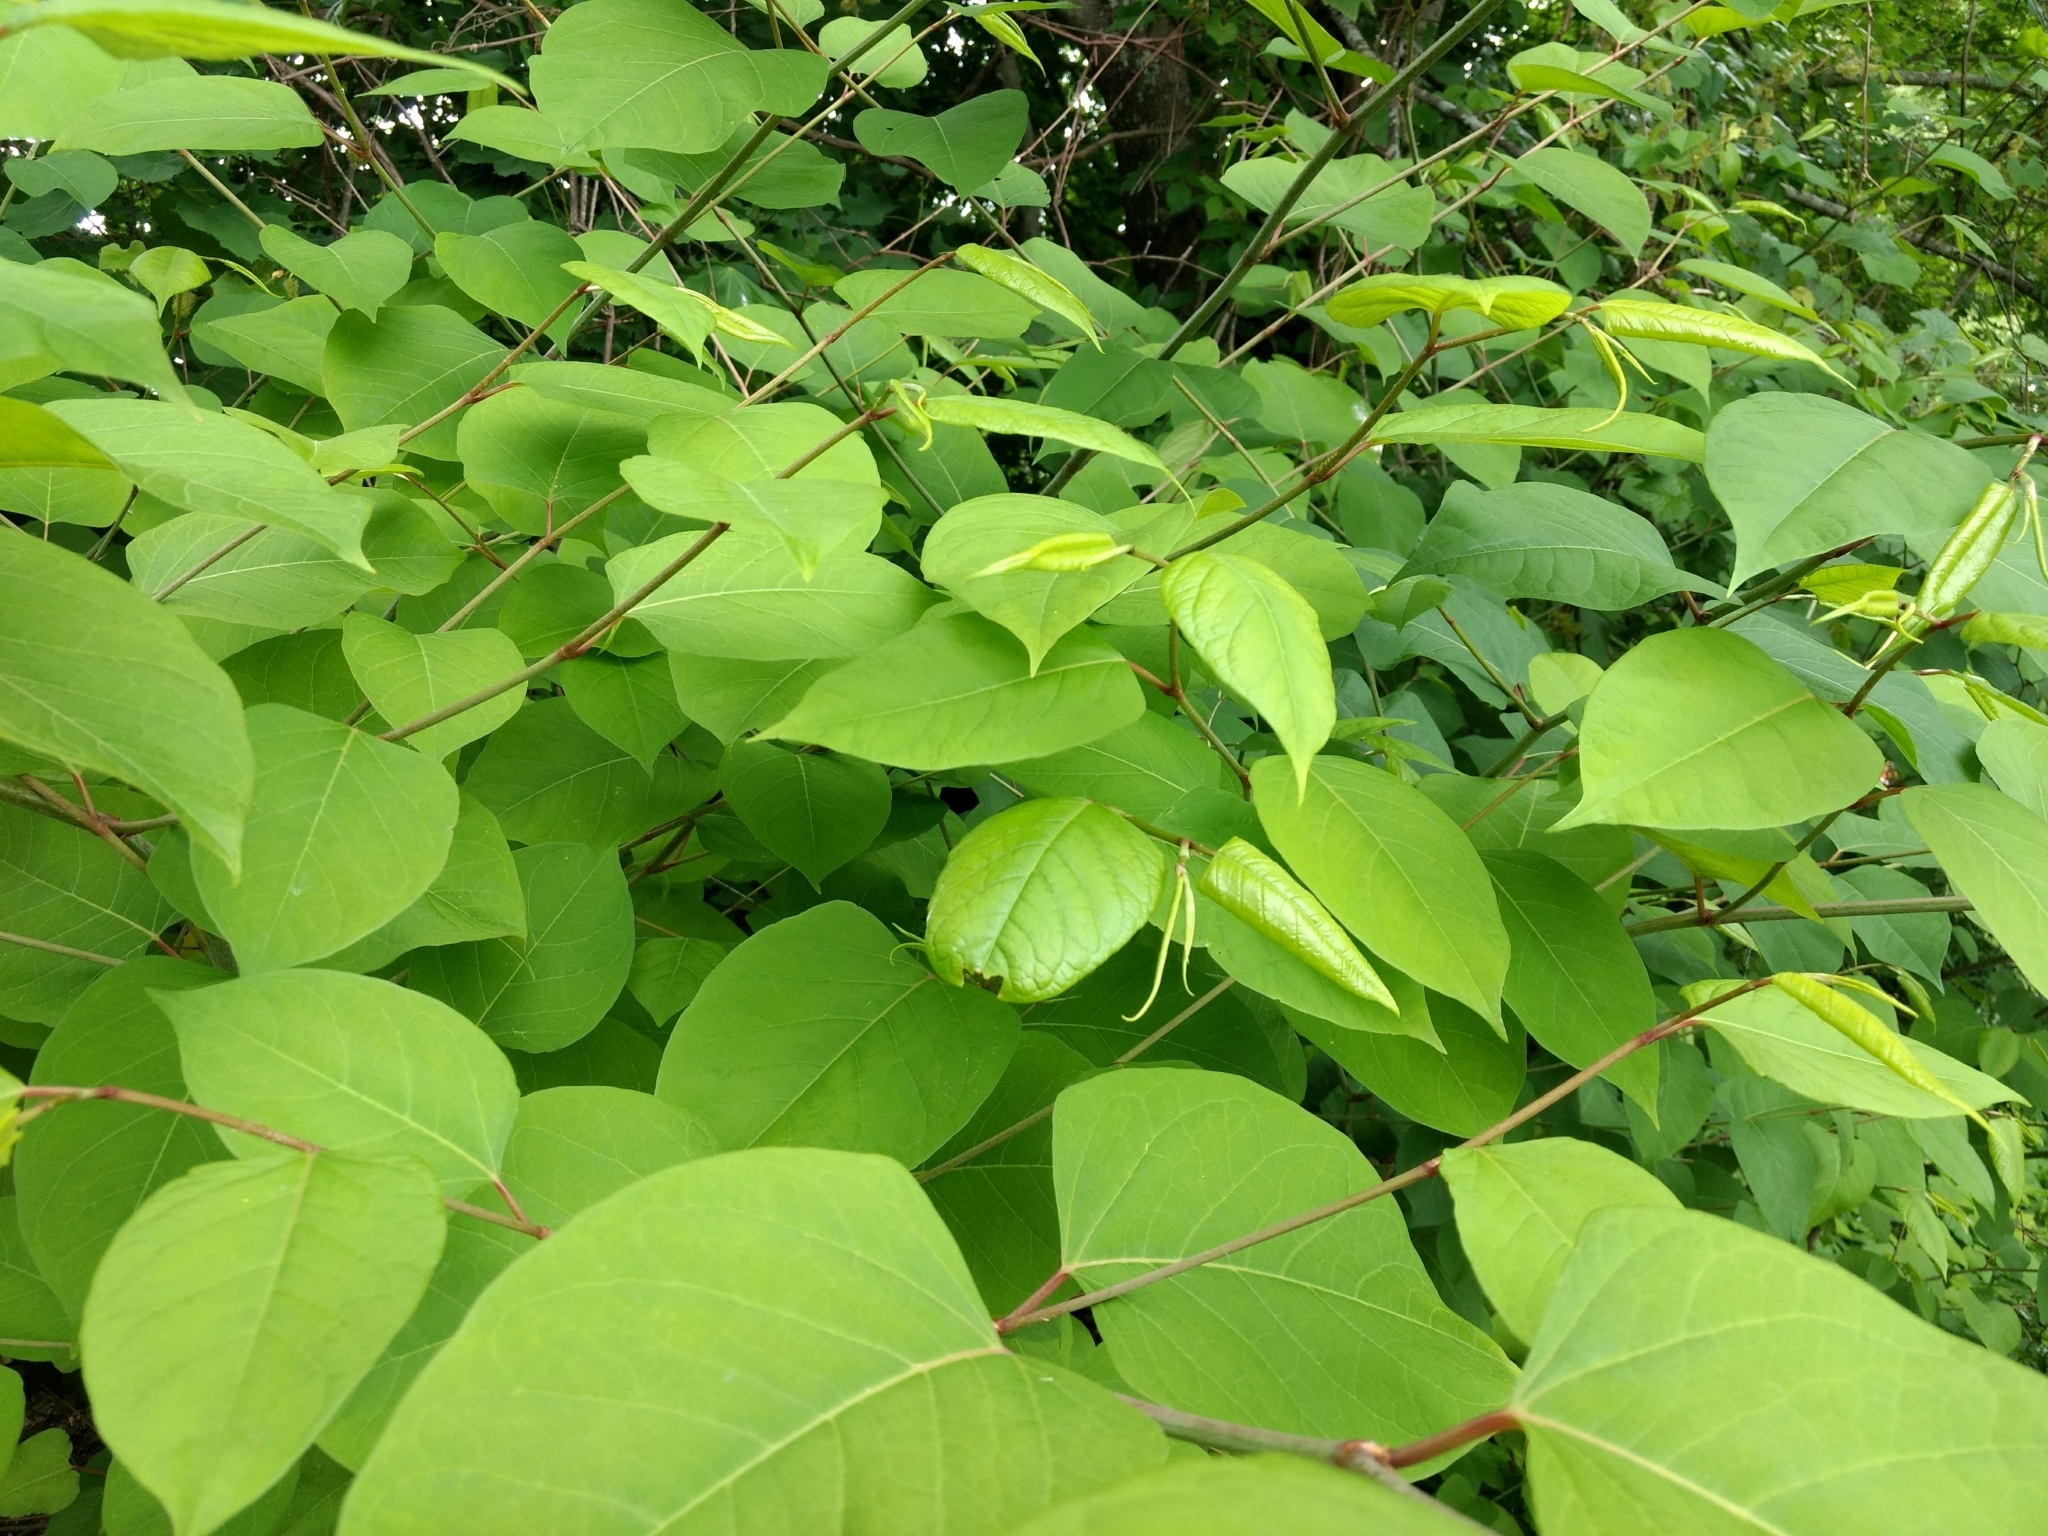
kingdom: Plantae
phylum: Tracheophyta
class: Magnoliopsida
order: Caryophyllales
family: Polygonaceae
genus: Reynoutria
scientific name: Reynoutria japonica
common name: Japanese knotweed
